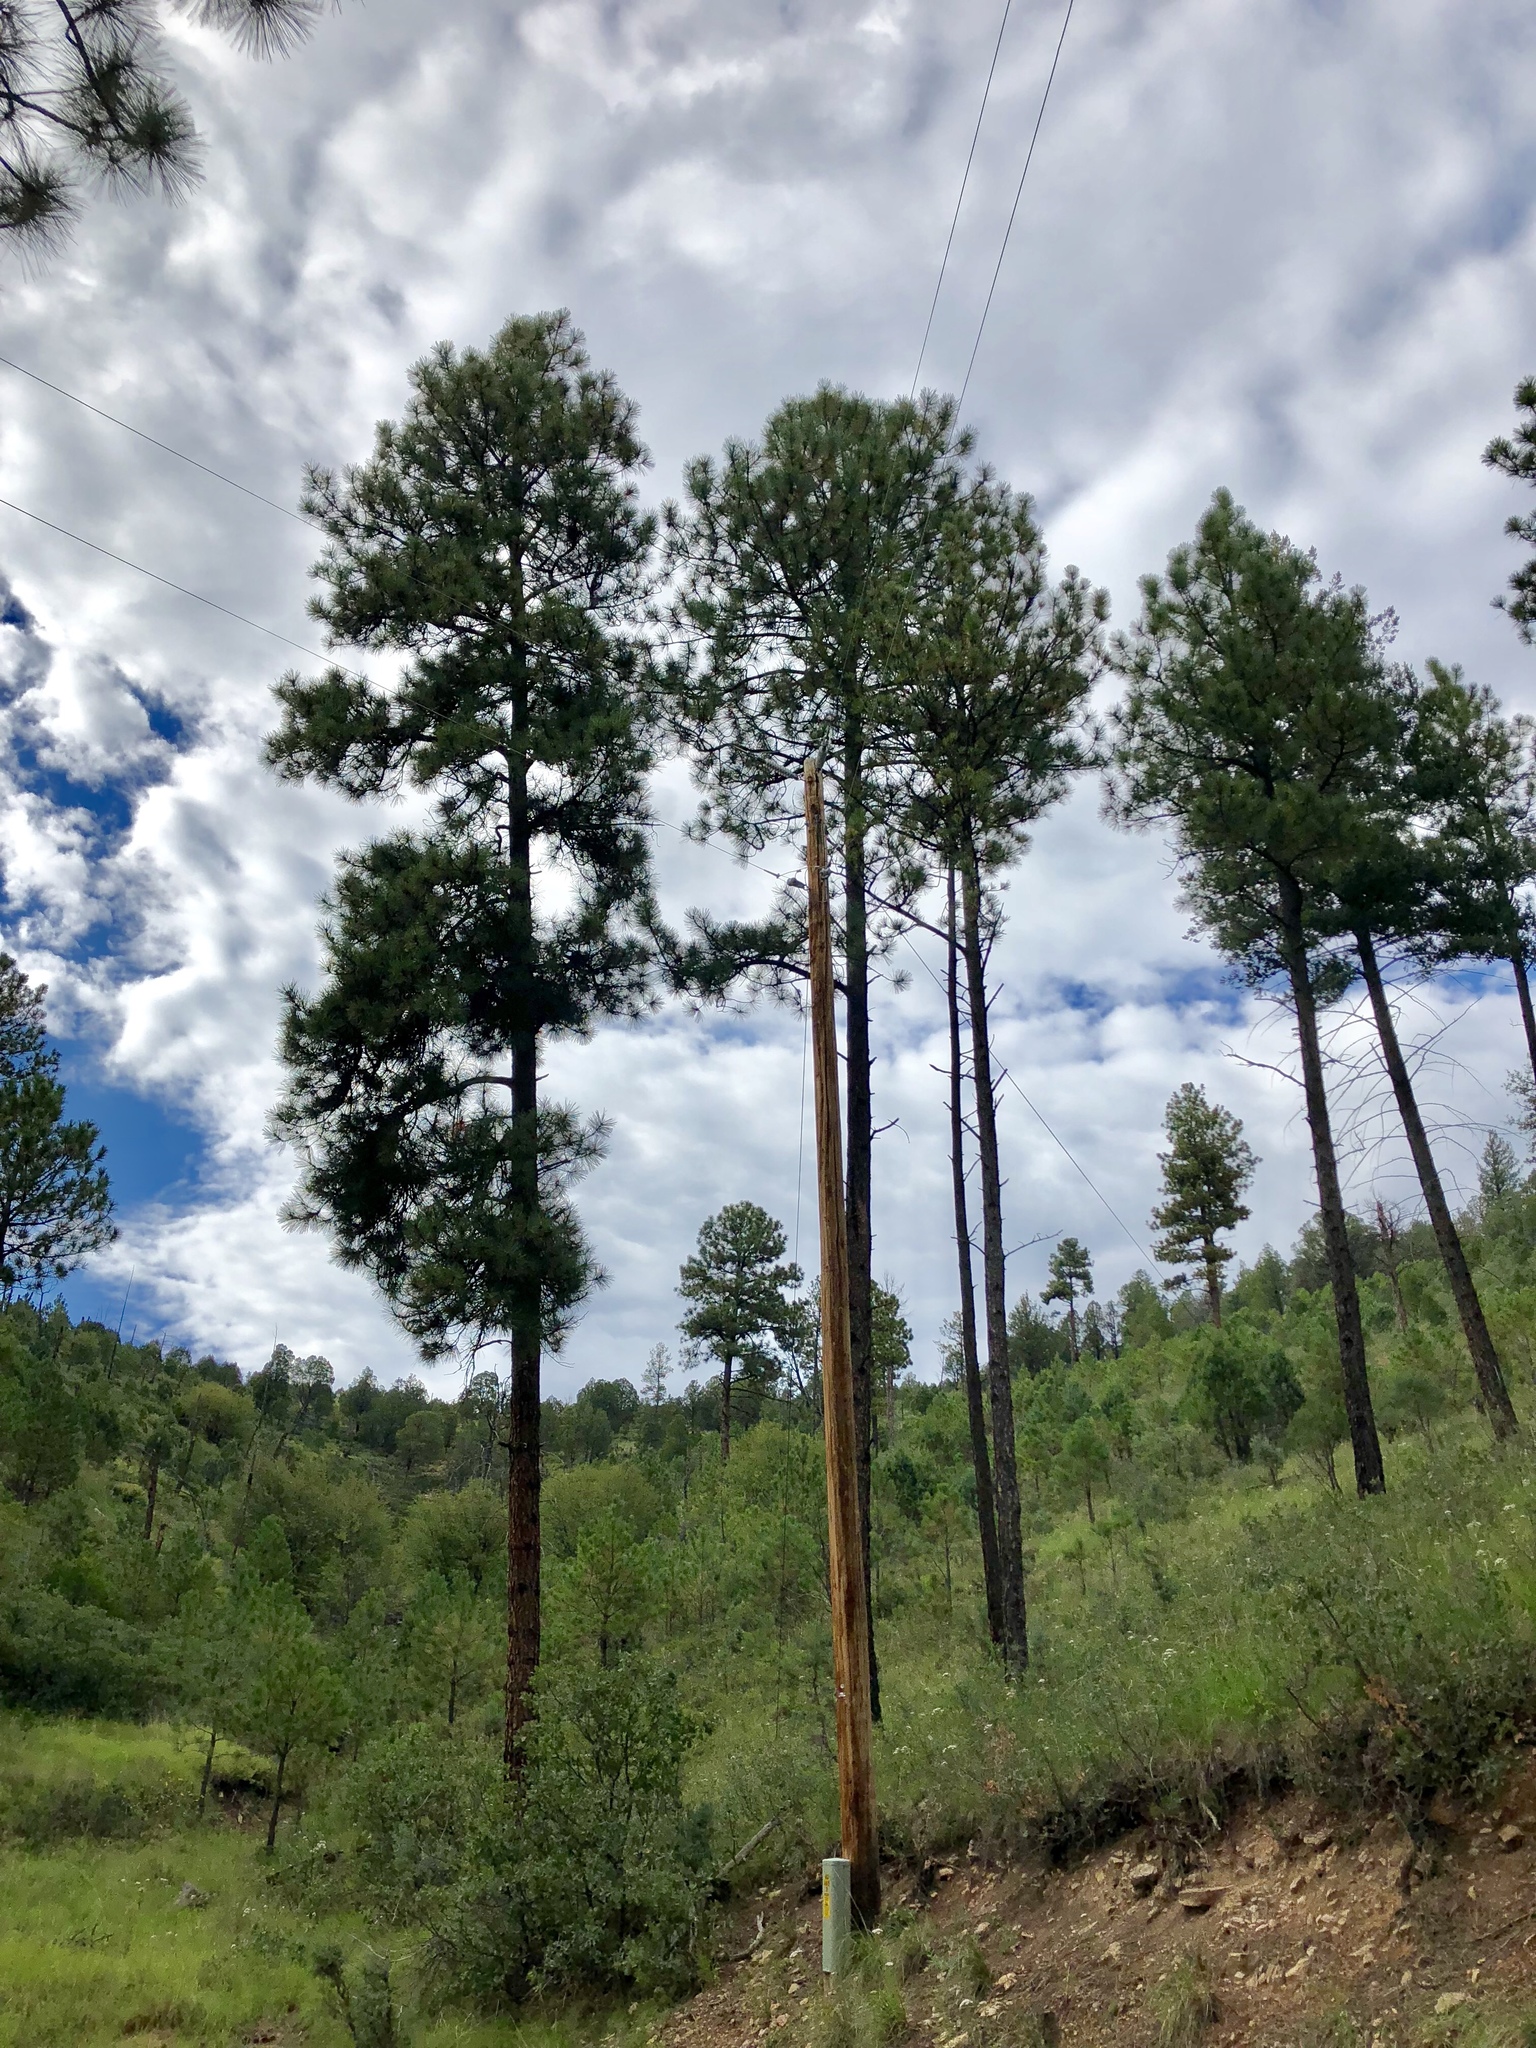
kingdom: Plantae
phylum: Tracheophyta
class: Pinopsida
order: Pinales
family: Pinaceae
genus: Pinus
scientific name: Pinus ponderosa
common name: Western yellow-pine
